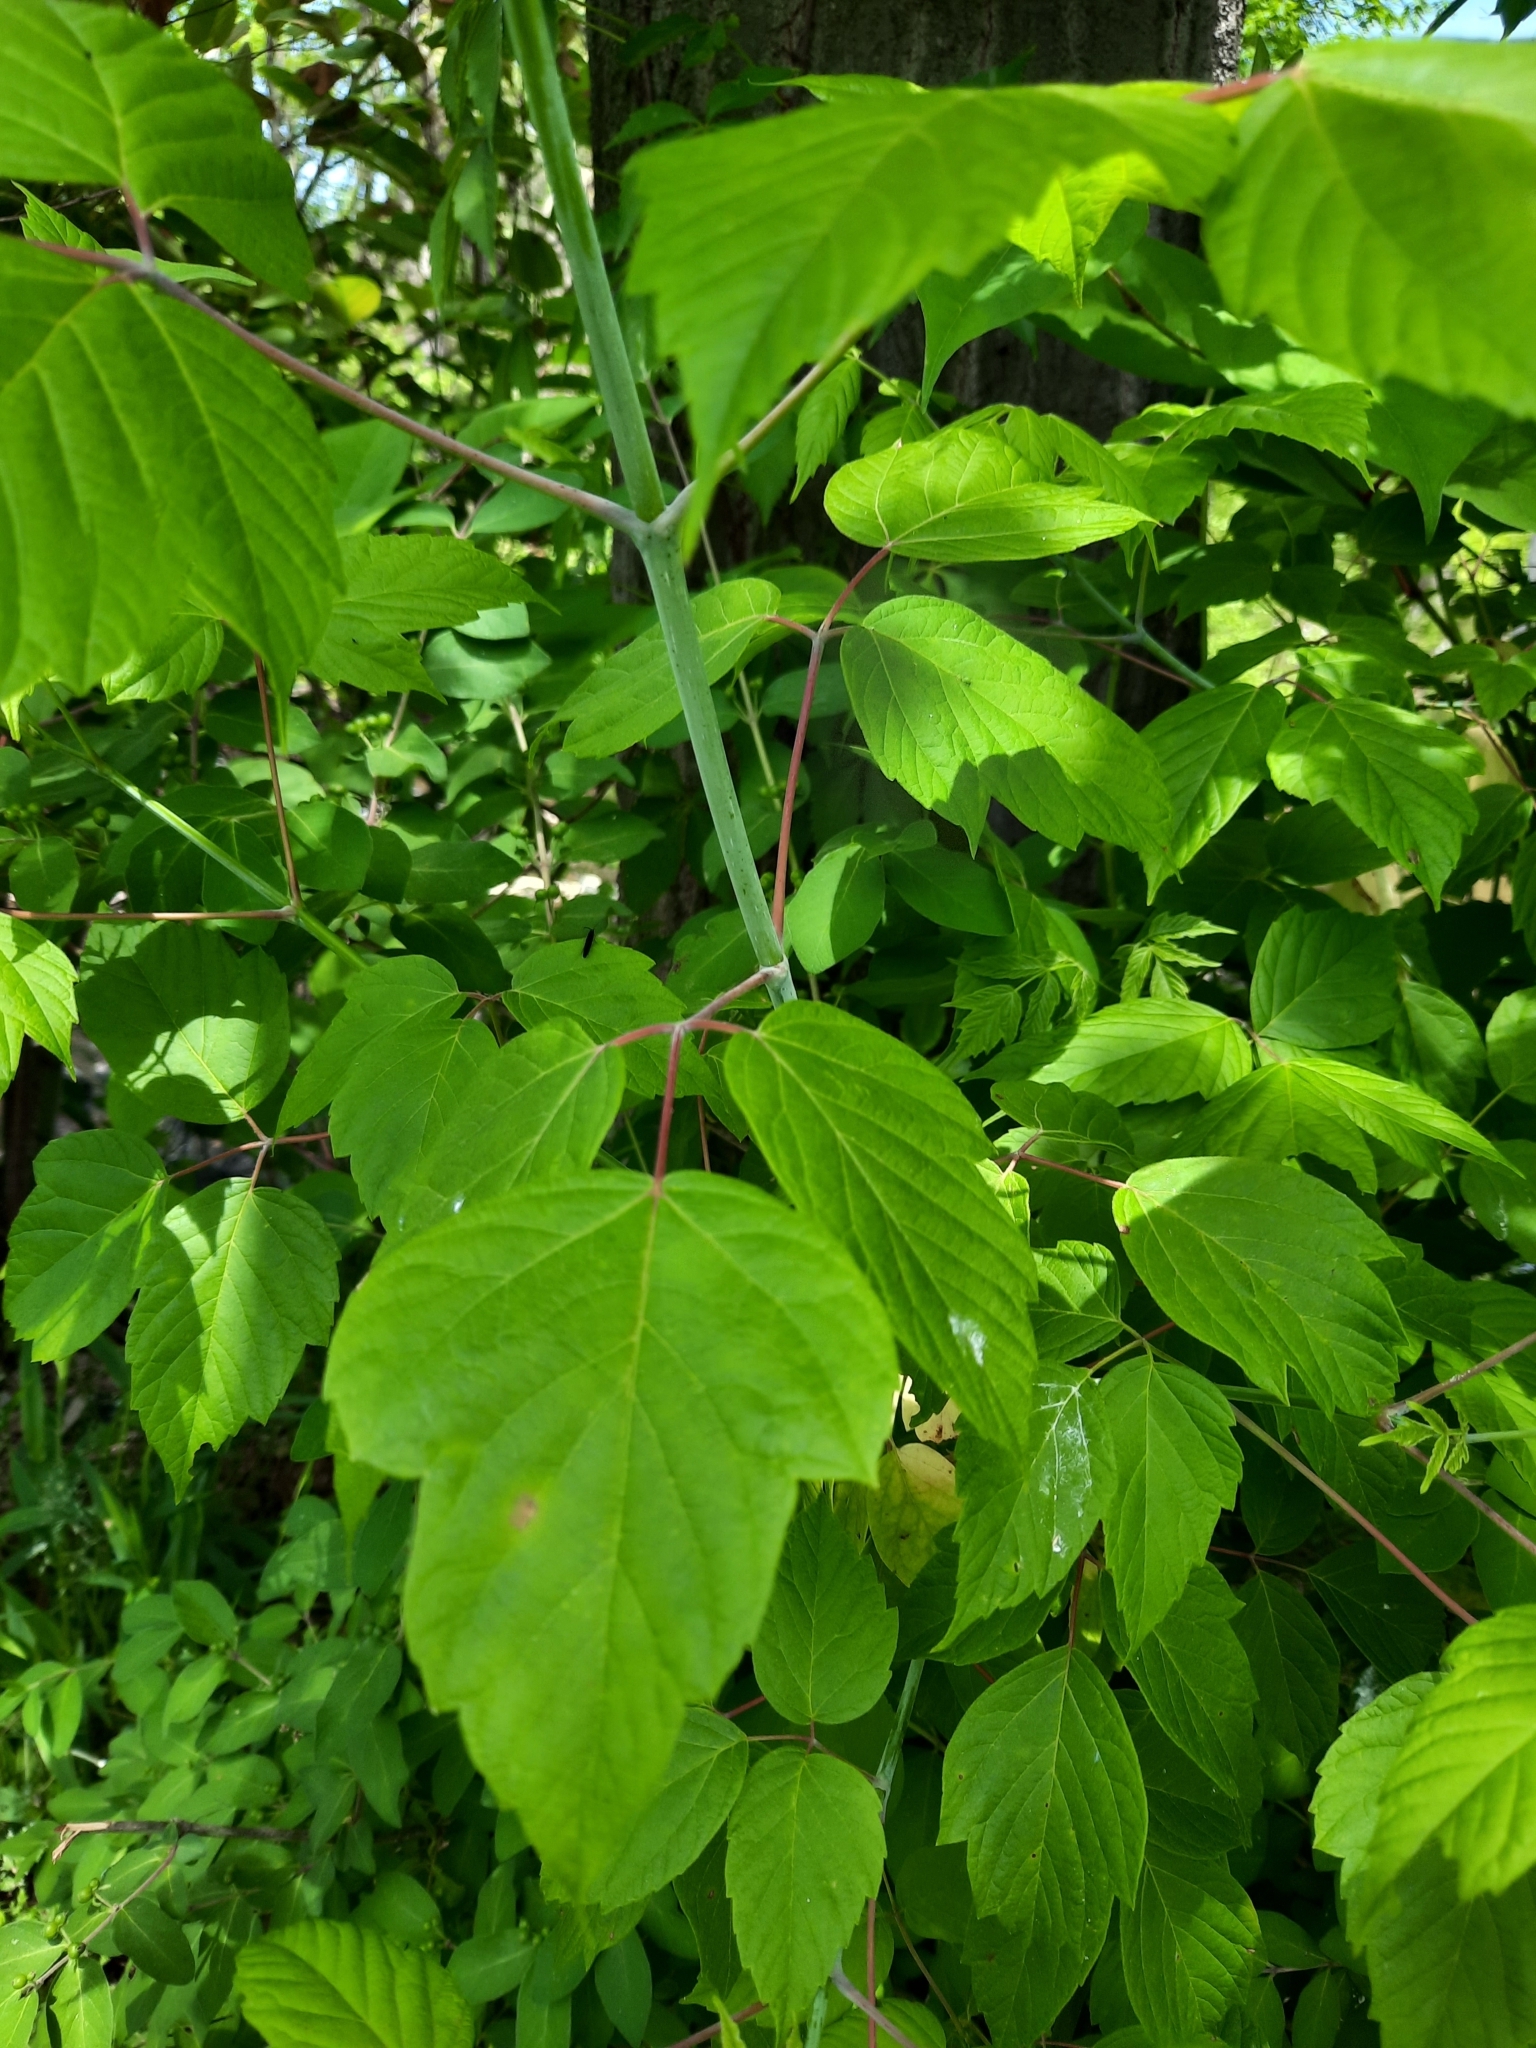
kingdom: Plantae
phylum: Tracheophyta
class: Magnoliopsida
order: Sapindales
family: Sapindaceae
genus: Acer
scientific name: Acer negundo
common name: Ashleaf maple
